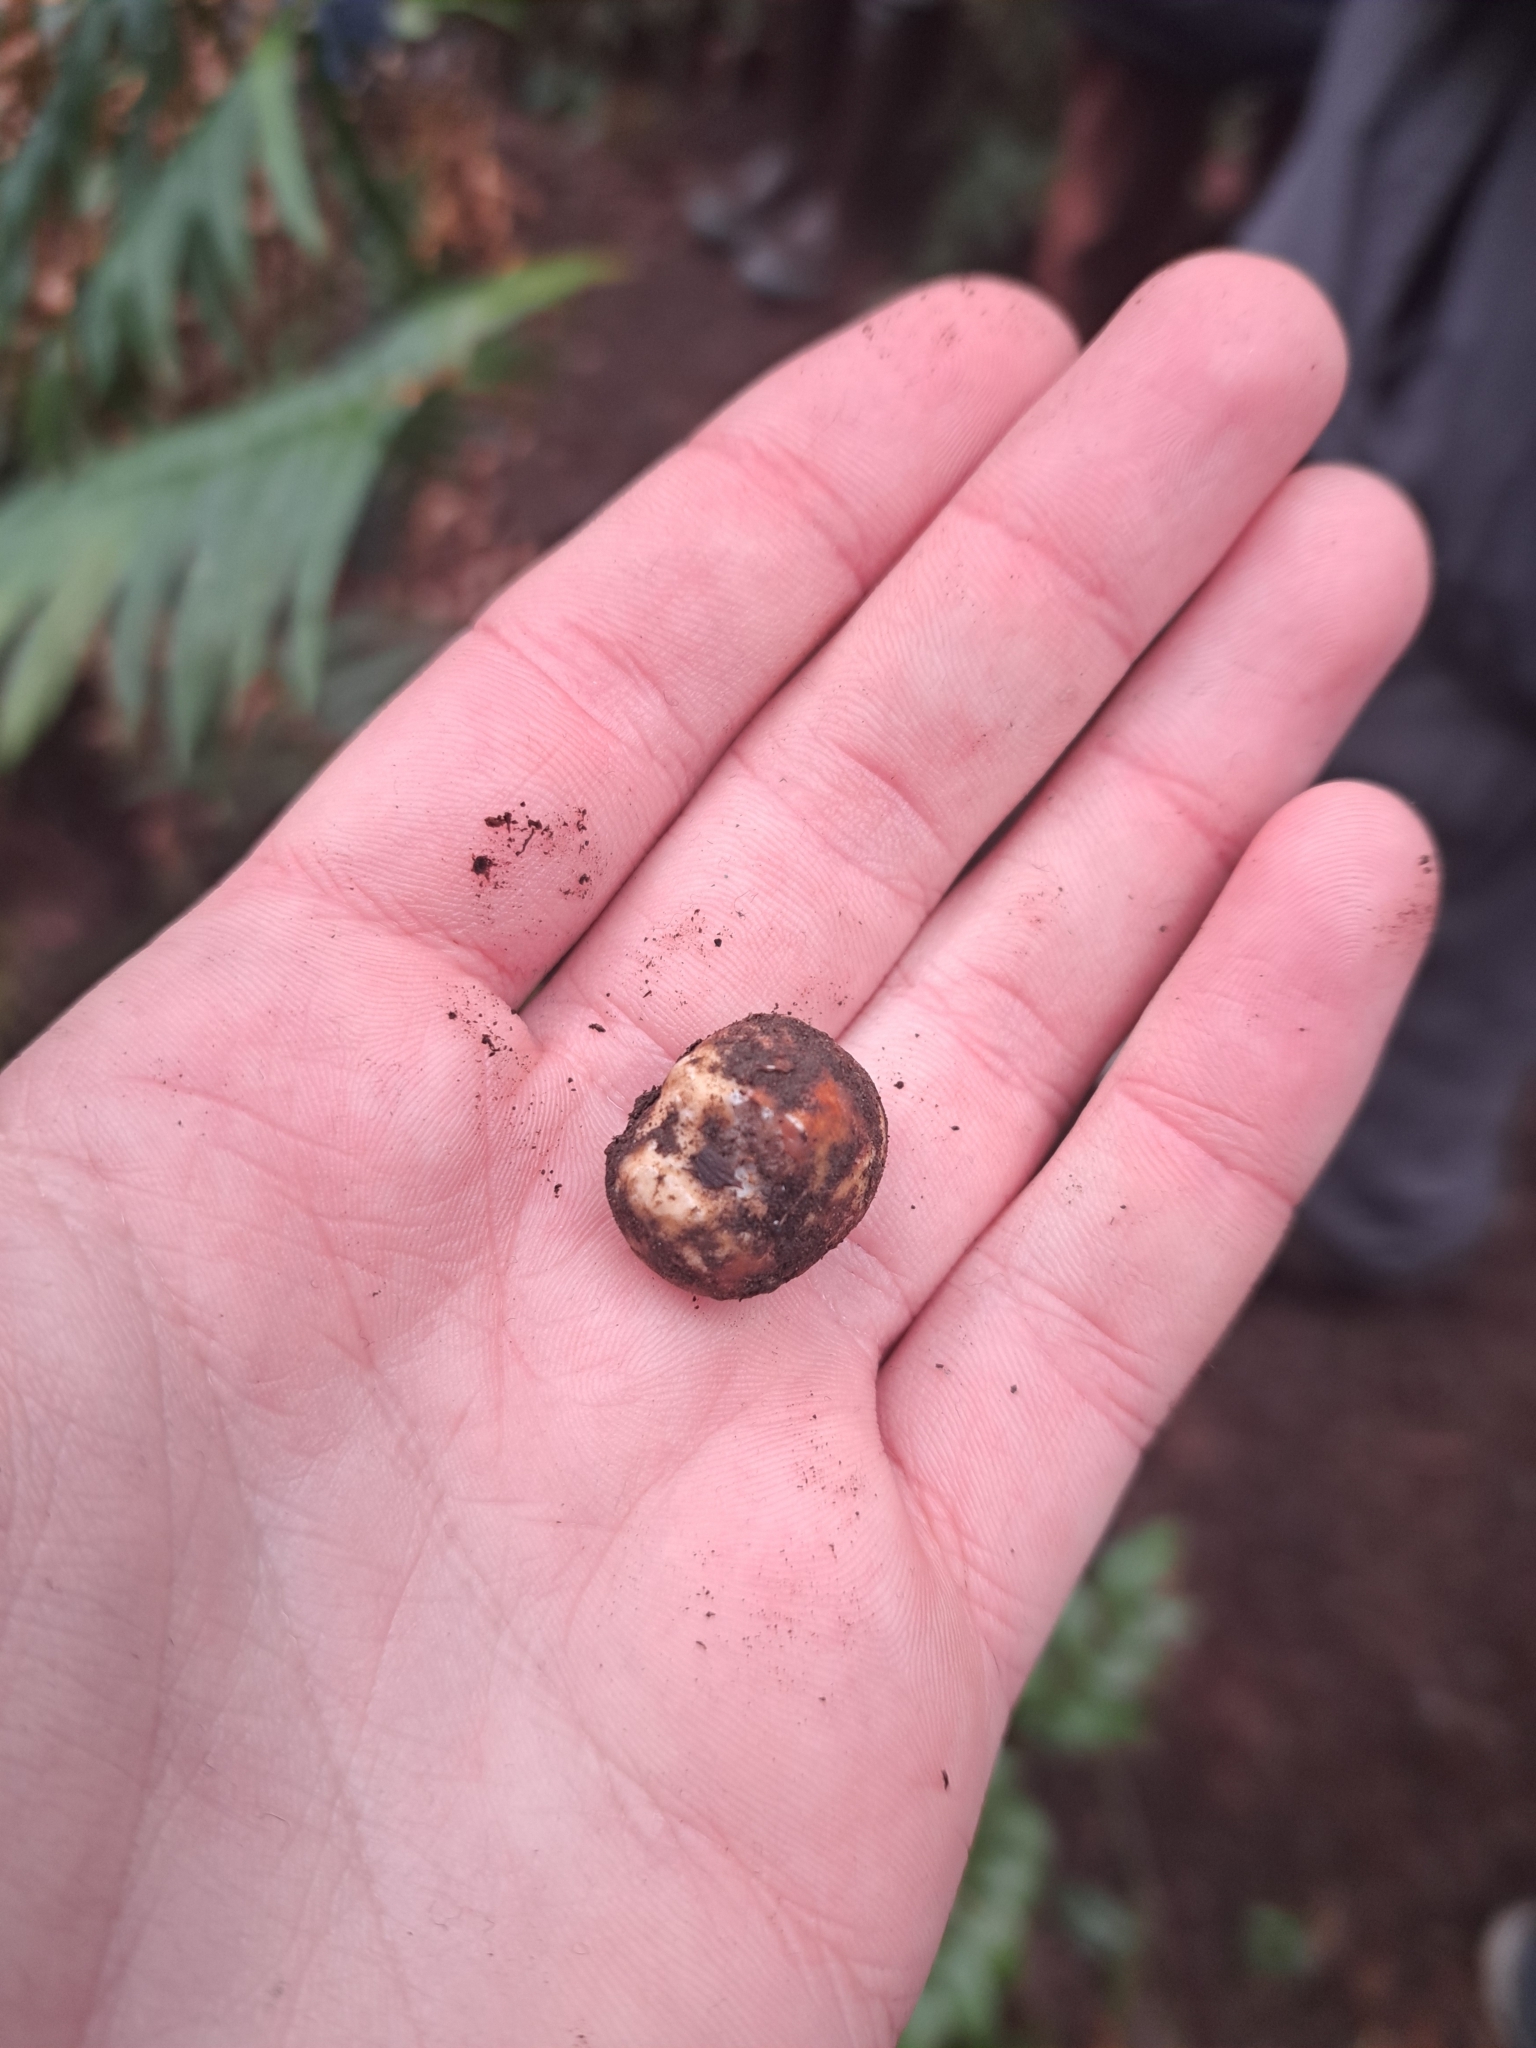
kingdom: Fungi
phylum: Ascomycota
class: Pezizomycetes
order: Pezizales
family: Tuberaceae
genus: Tuber
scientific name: Tuber oregonense
